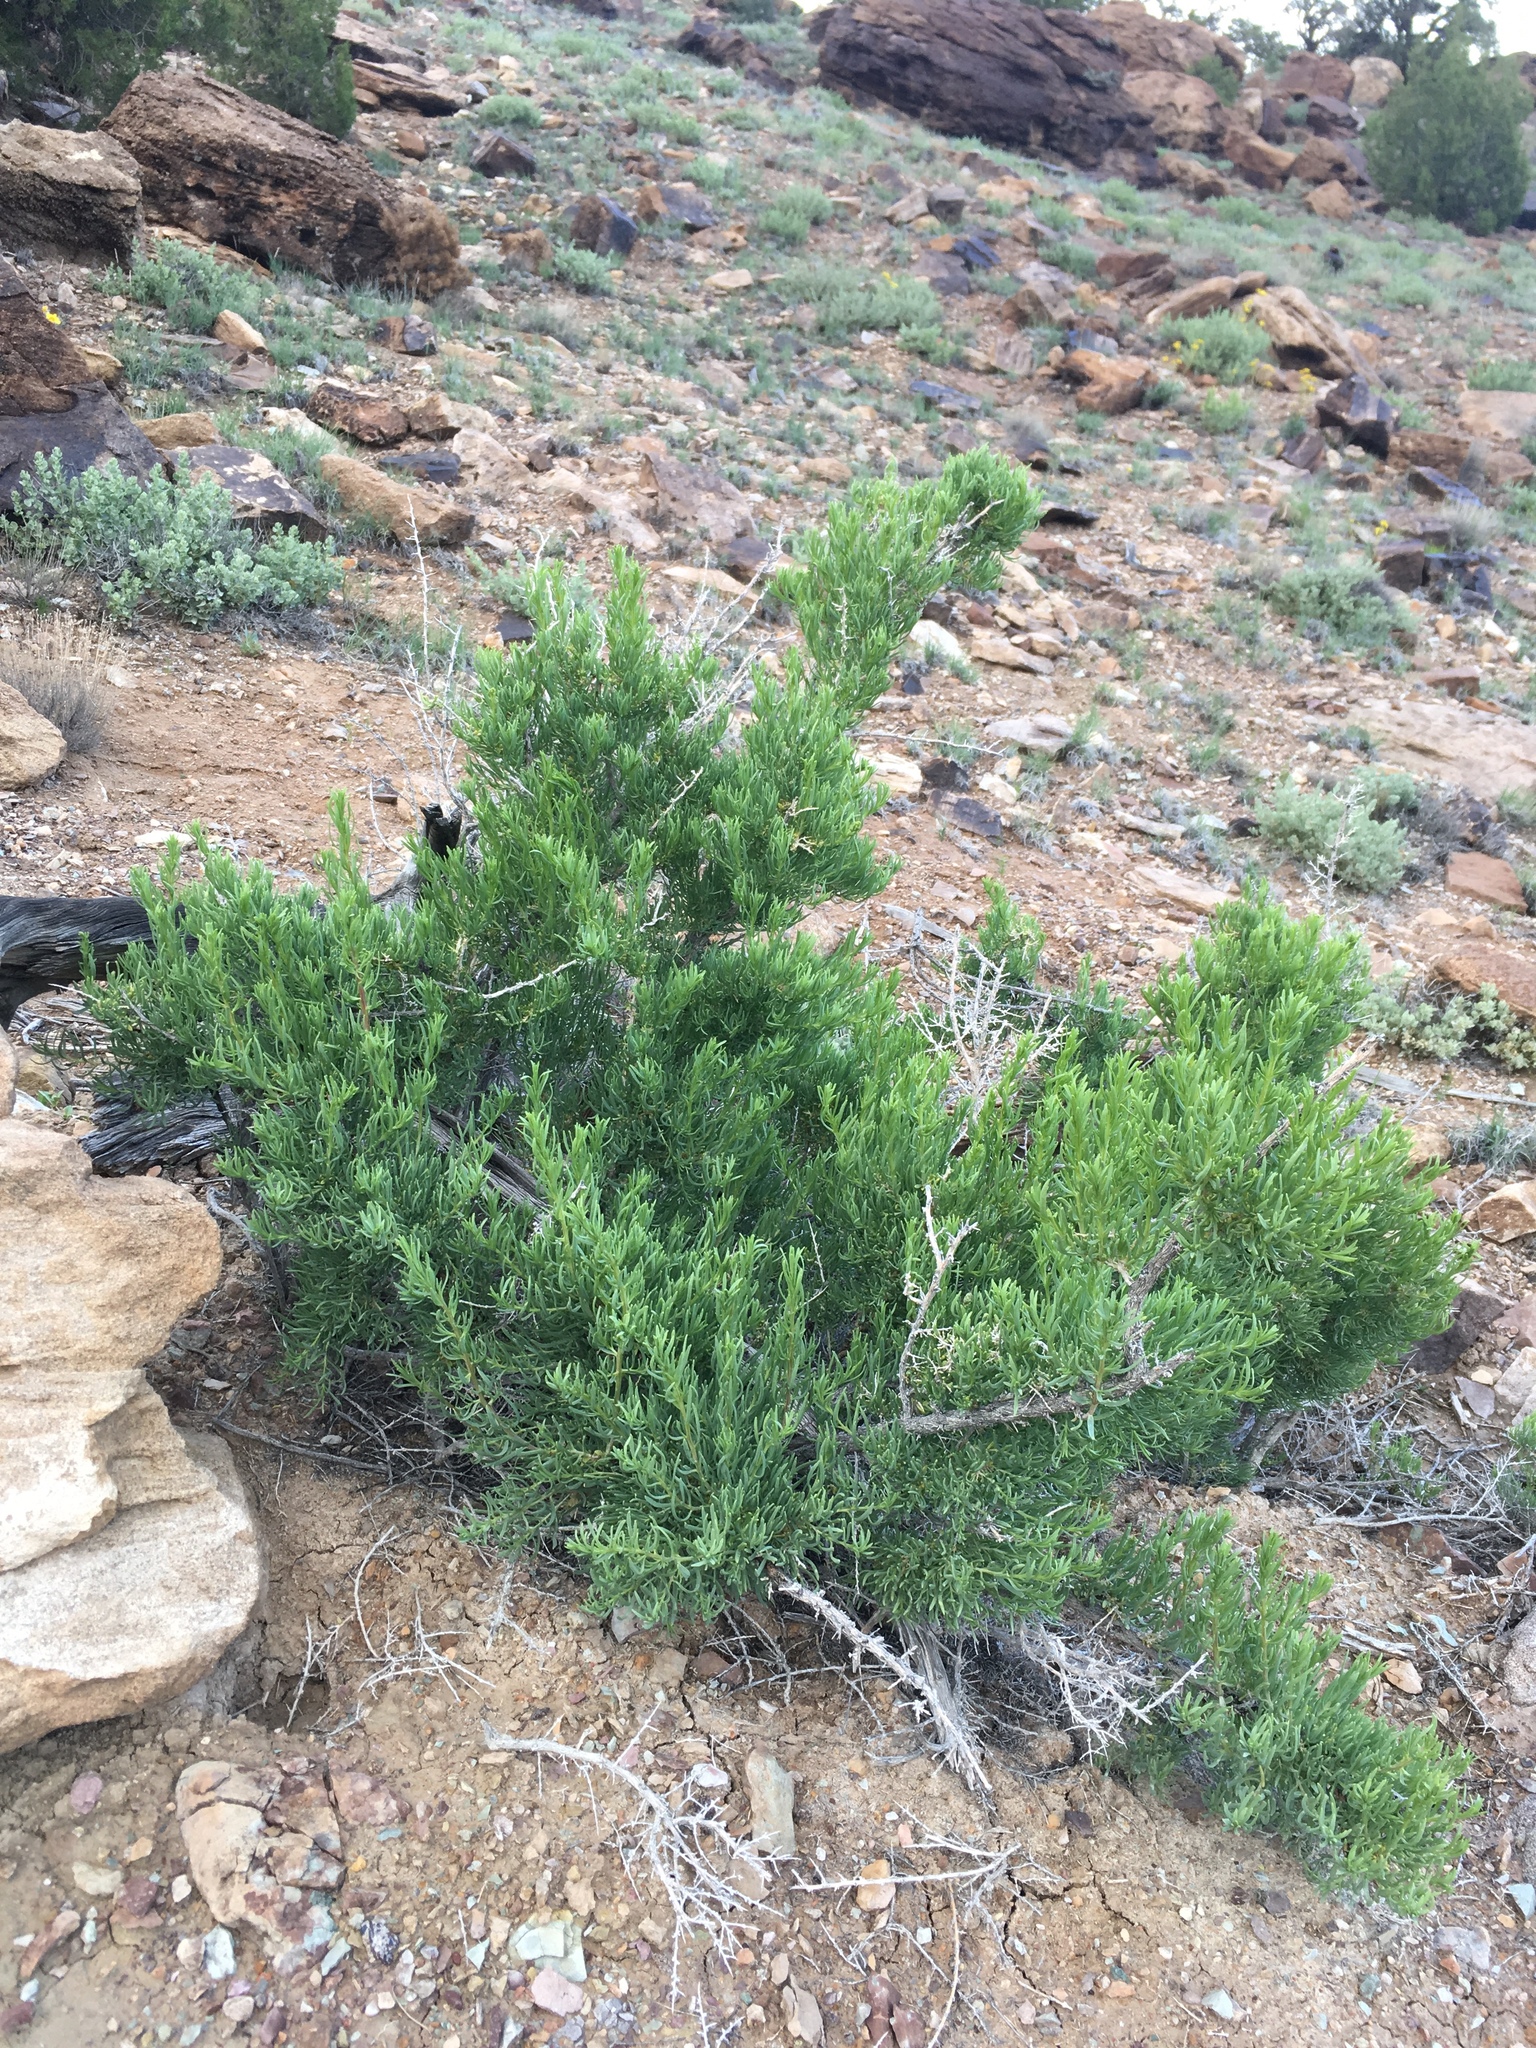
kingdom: Plantae
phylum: Tracheophyta
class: Magnoliopsida
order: Caryophyllales
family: Sarcobataceae
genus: Sarcobatus
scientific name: Sarcobatus vermiculatus
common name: Greasewood
